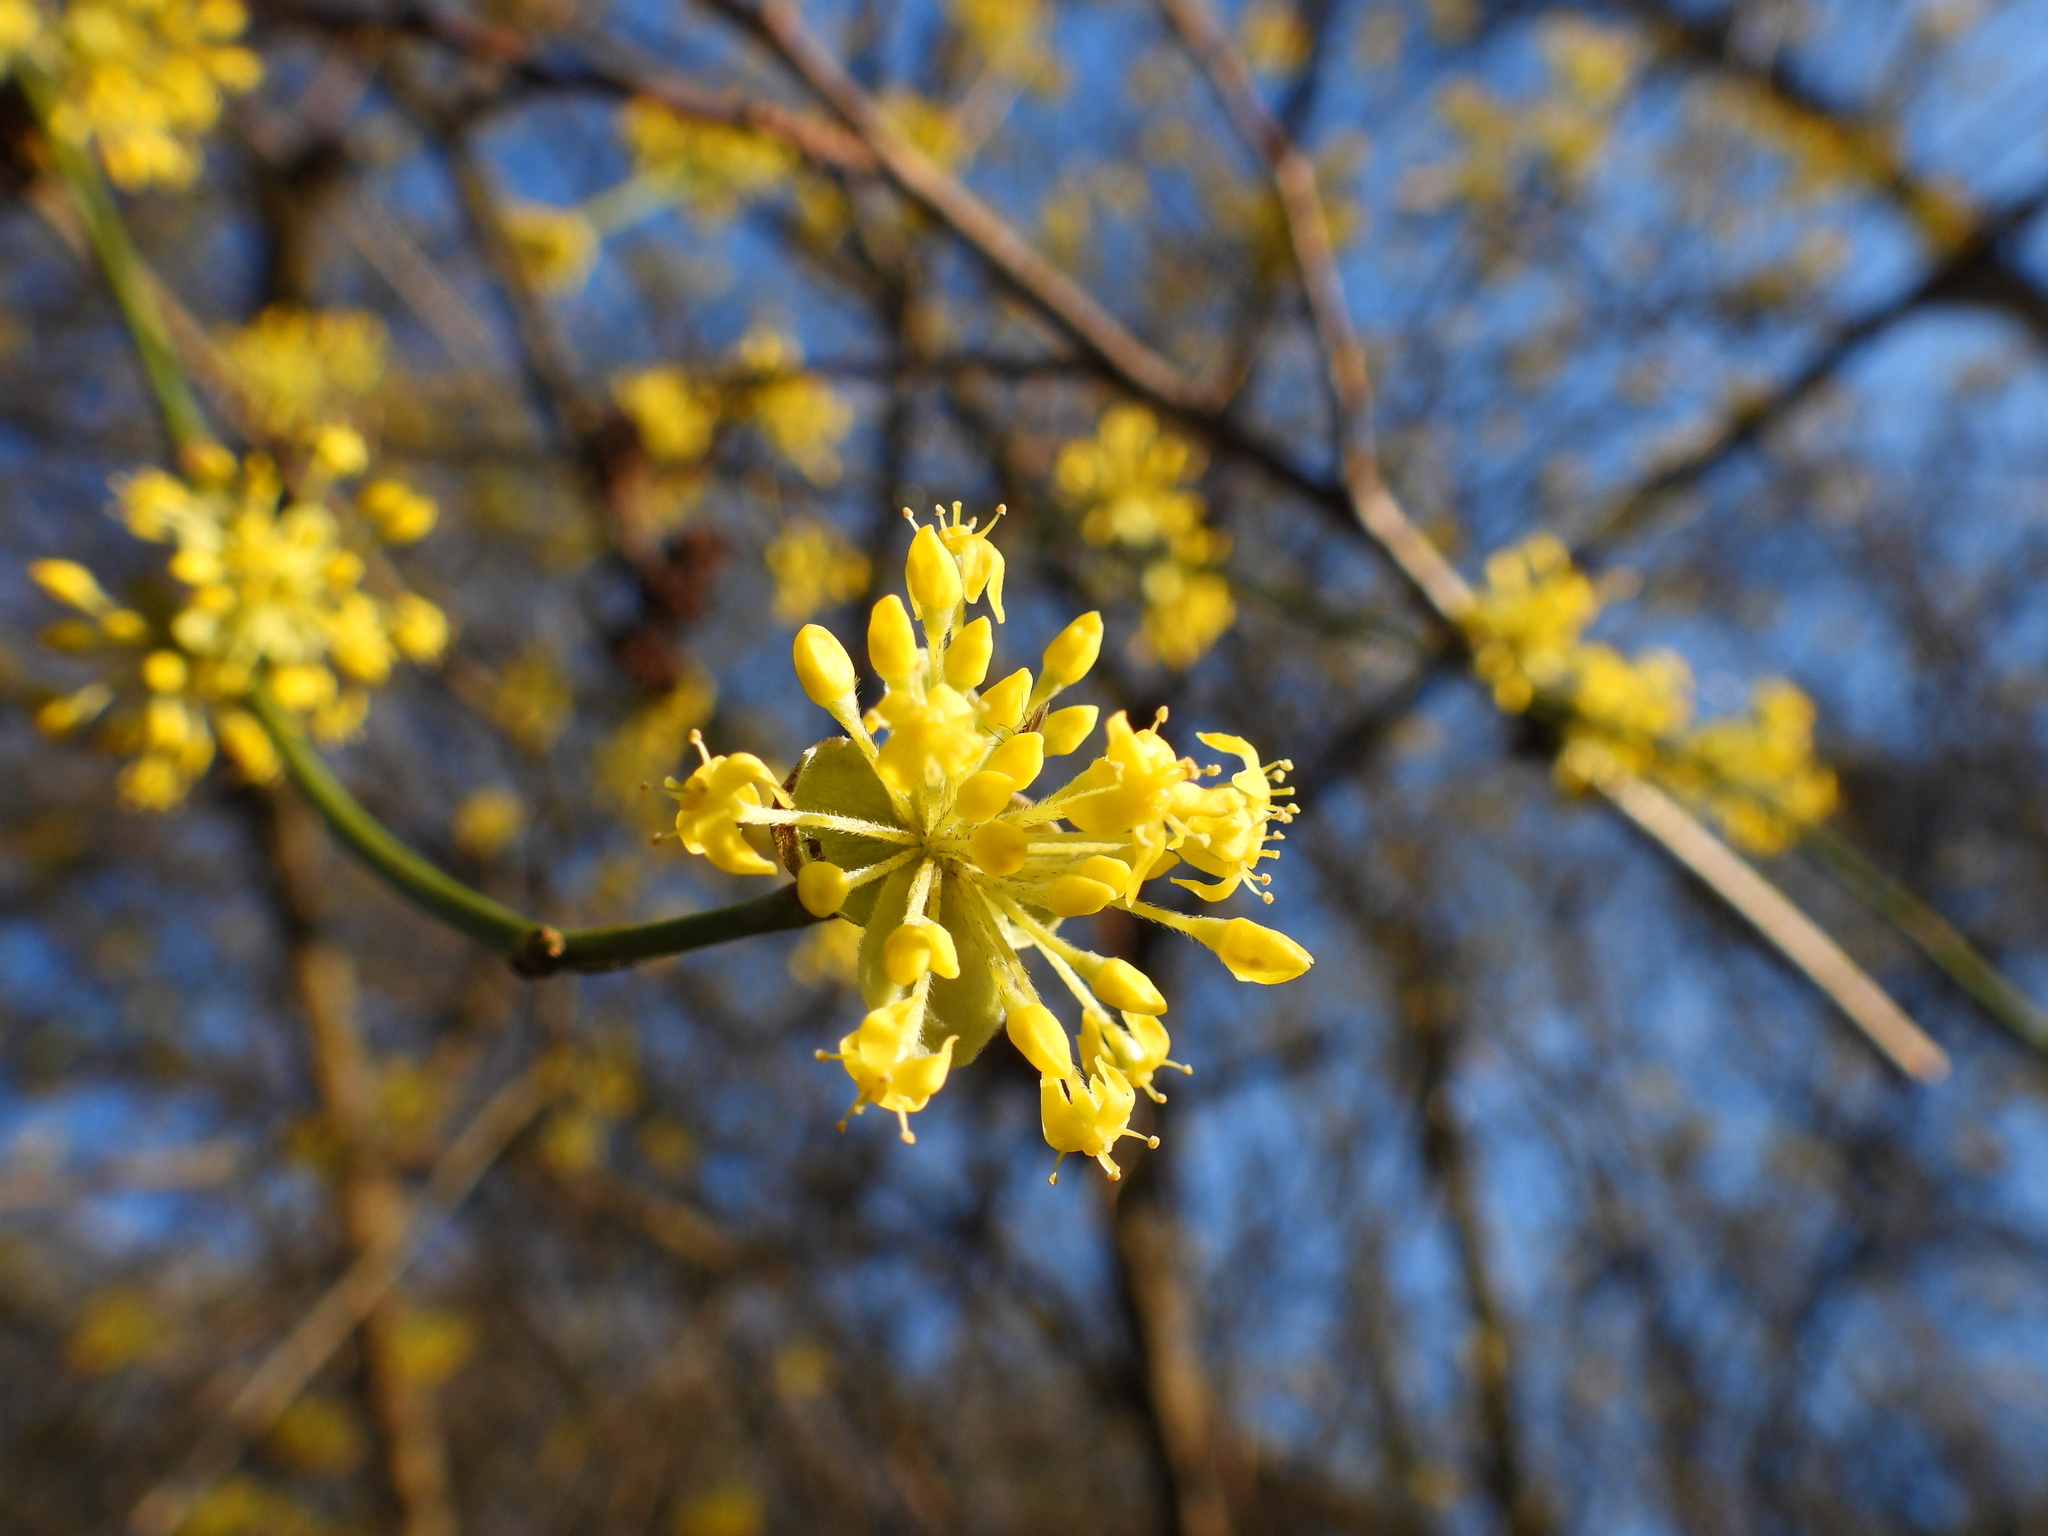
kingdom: Plantae
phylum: Tracheophyta
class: Magnoliopsida
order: Cornales
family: Cornaceae
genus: Cornus
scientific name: Cornus mas
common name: Cornelian-cherry
